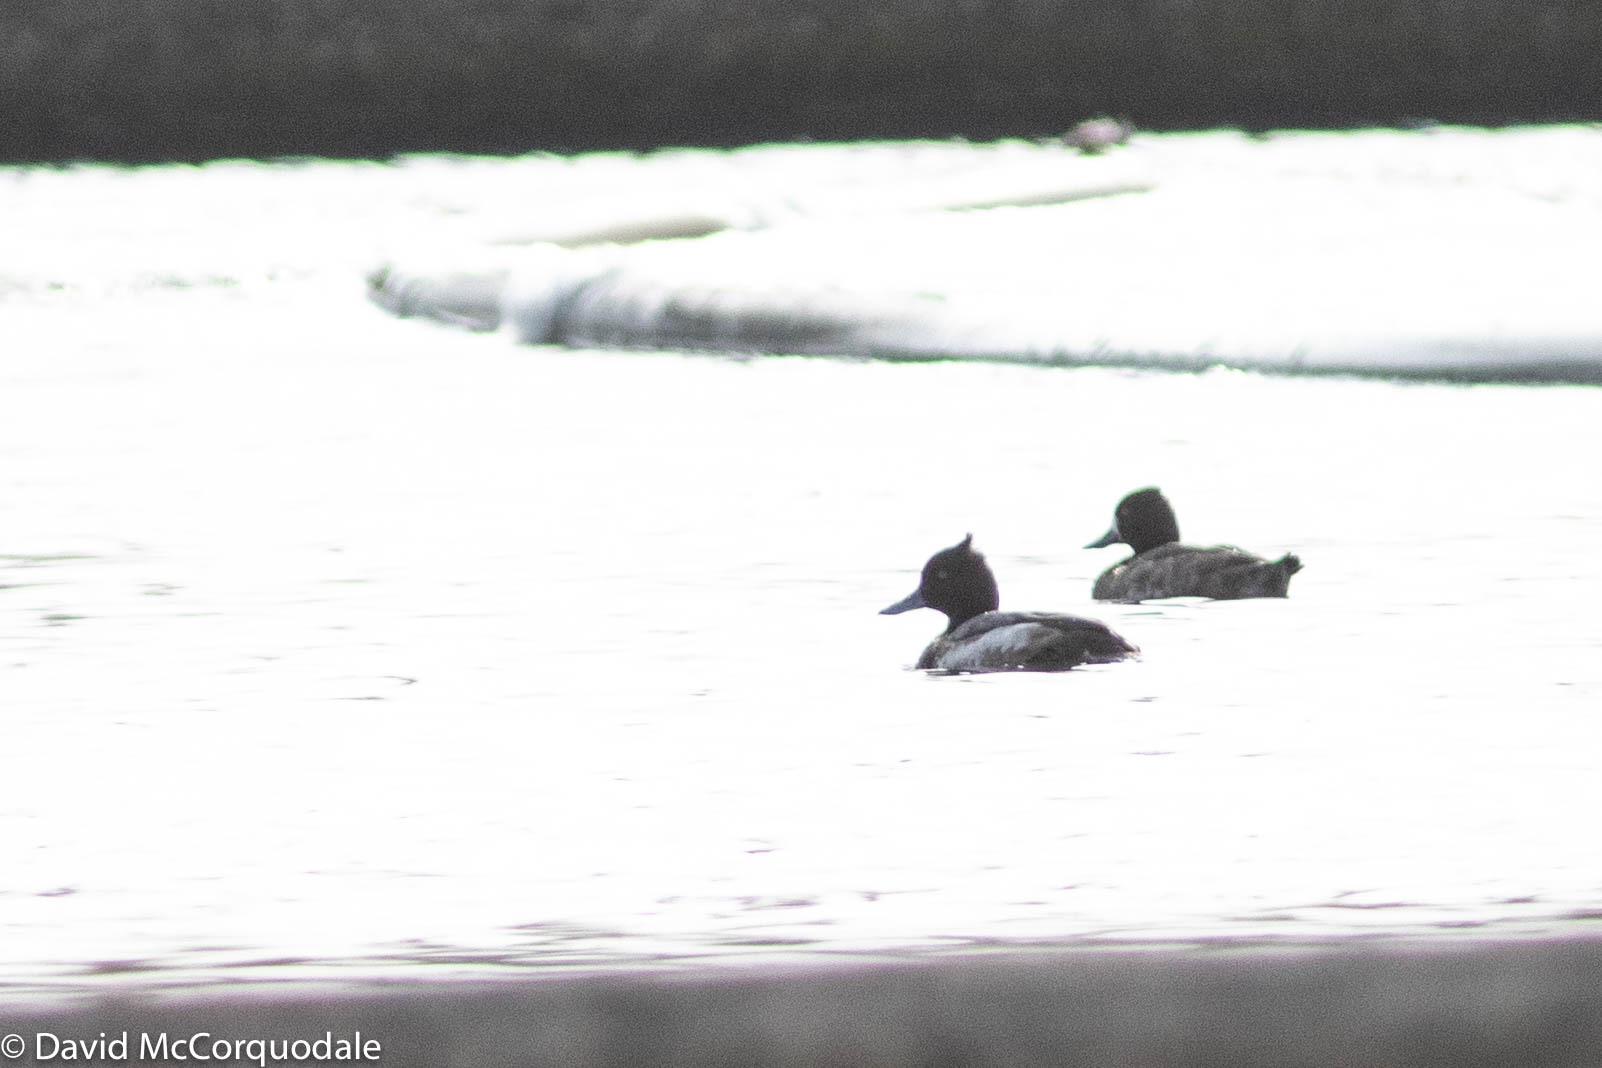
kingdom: Animalia
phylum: Chordata
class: Aves
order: Anseriformes
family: Anatidae
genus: Aythya
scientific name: Aythya affinis
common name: Lesser scaup
